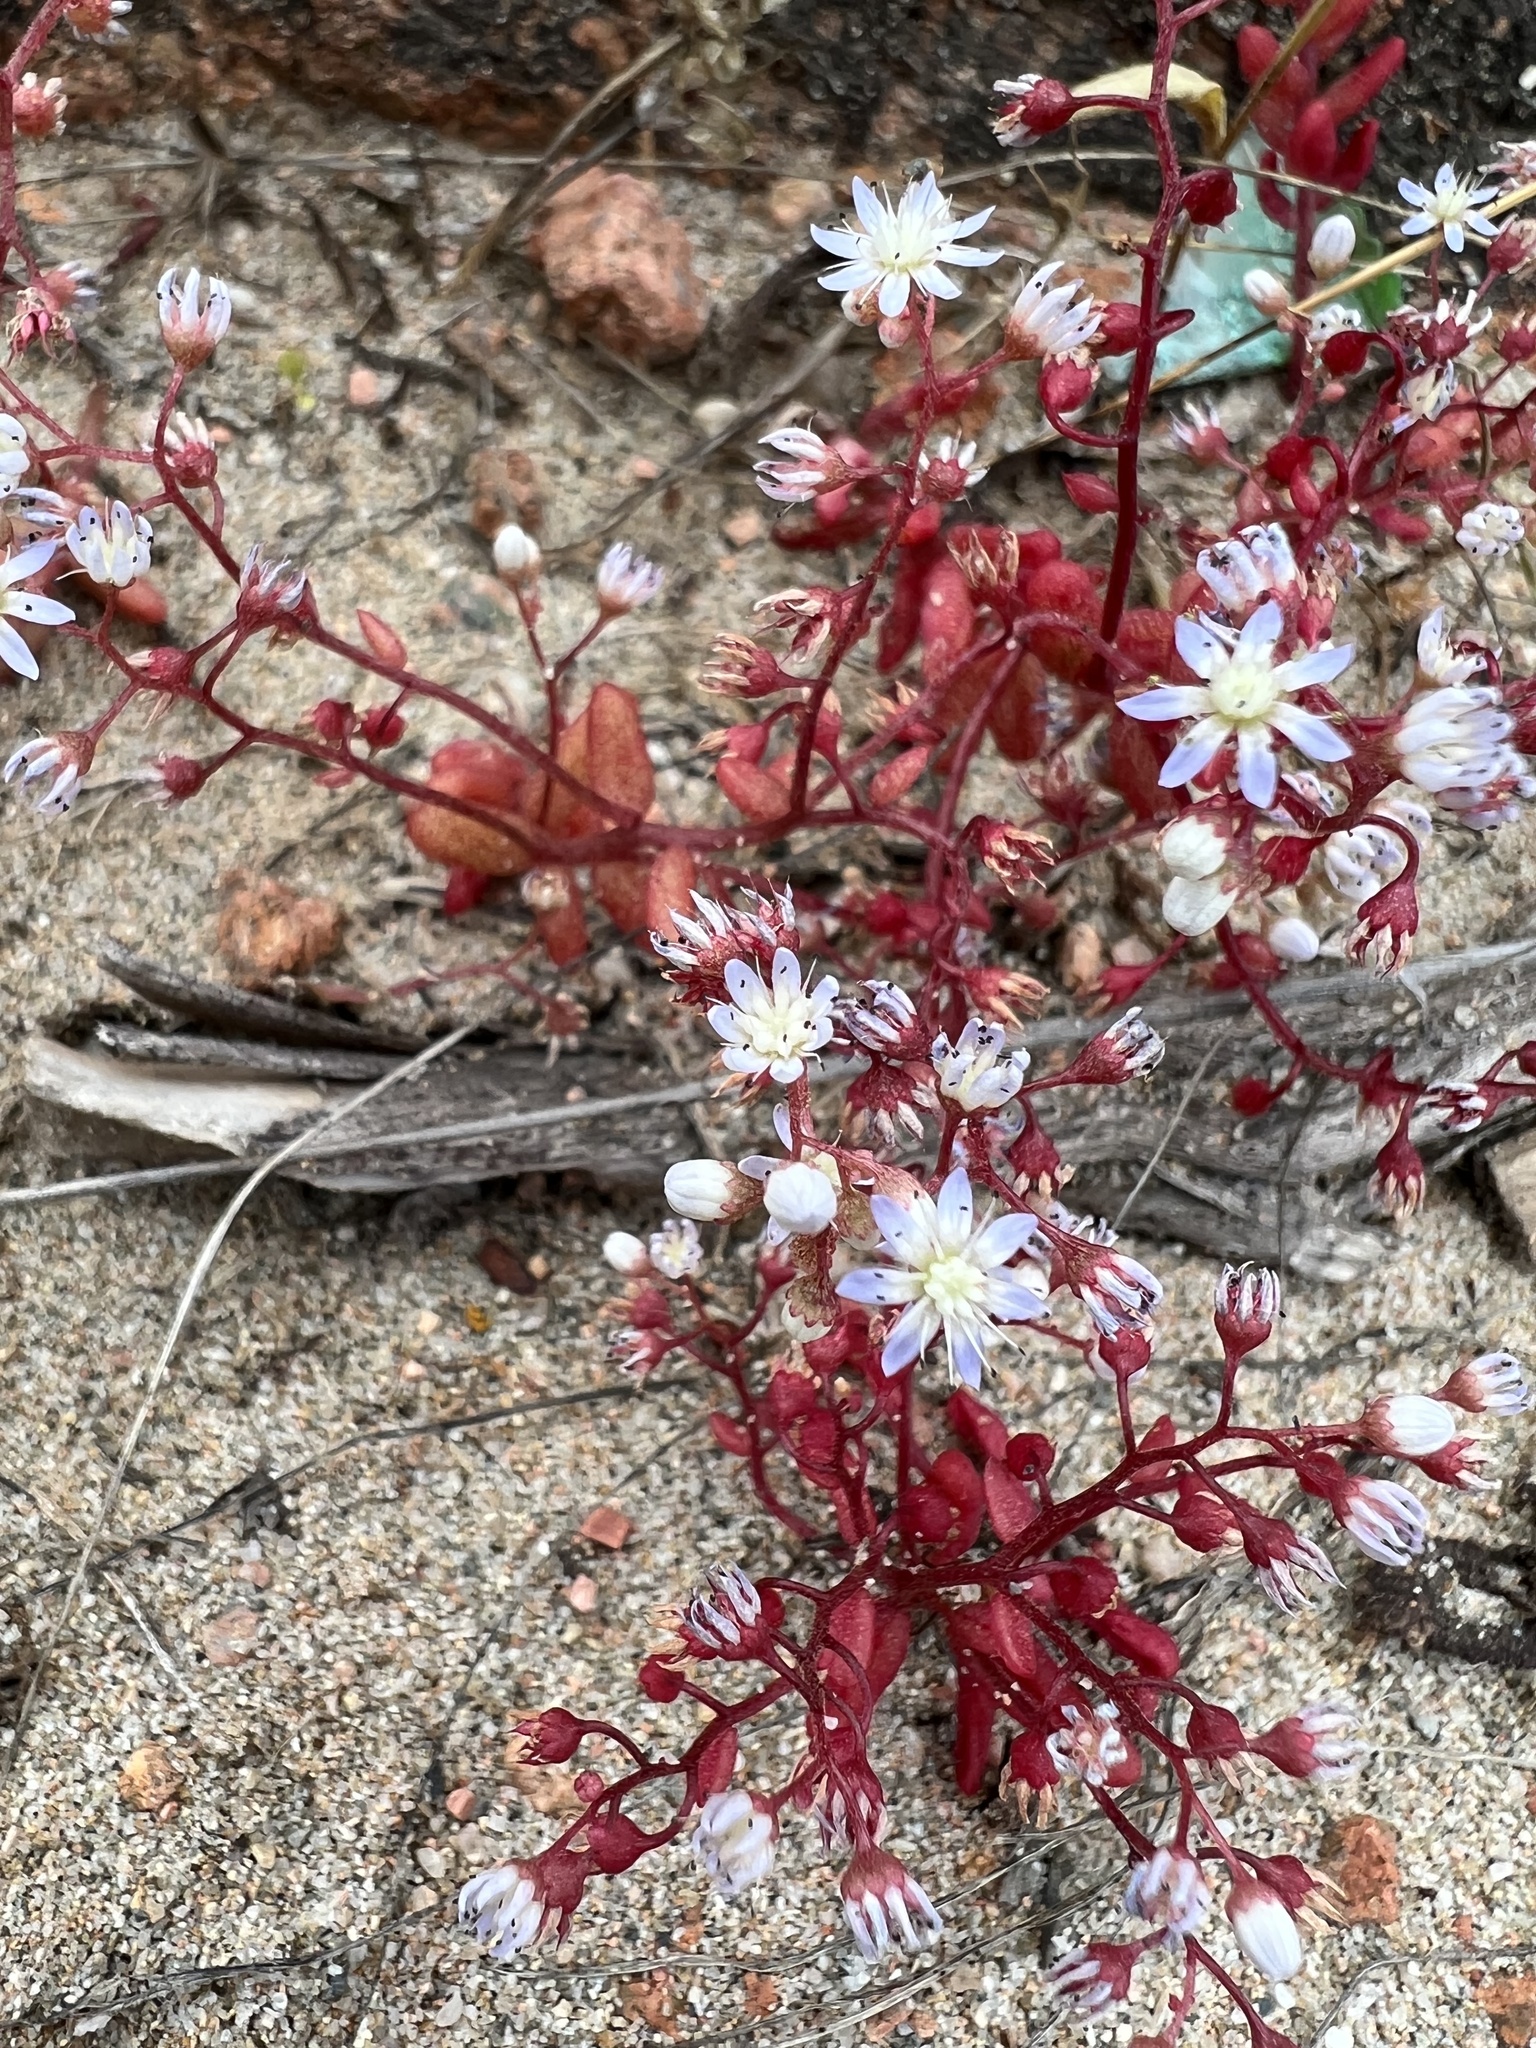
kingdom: Plantae
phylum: Tracheophyta
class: Magnoliopsida
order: Saxifragales
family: Crassulaceae
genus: Sedum
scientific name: Sedum caeruleum
